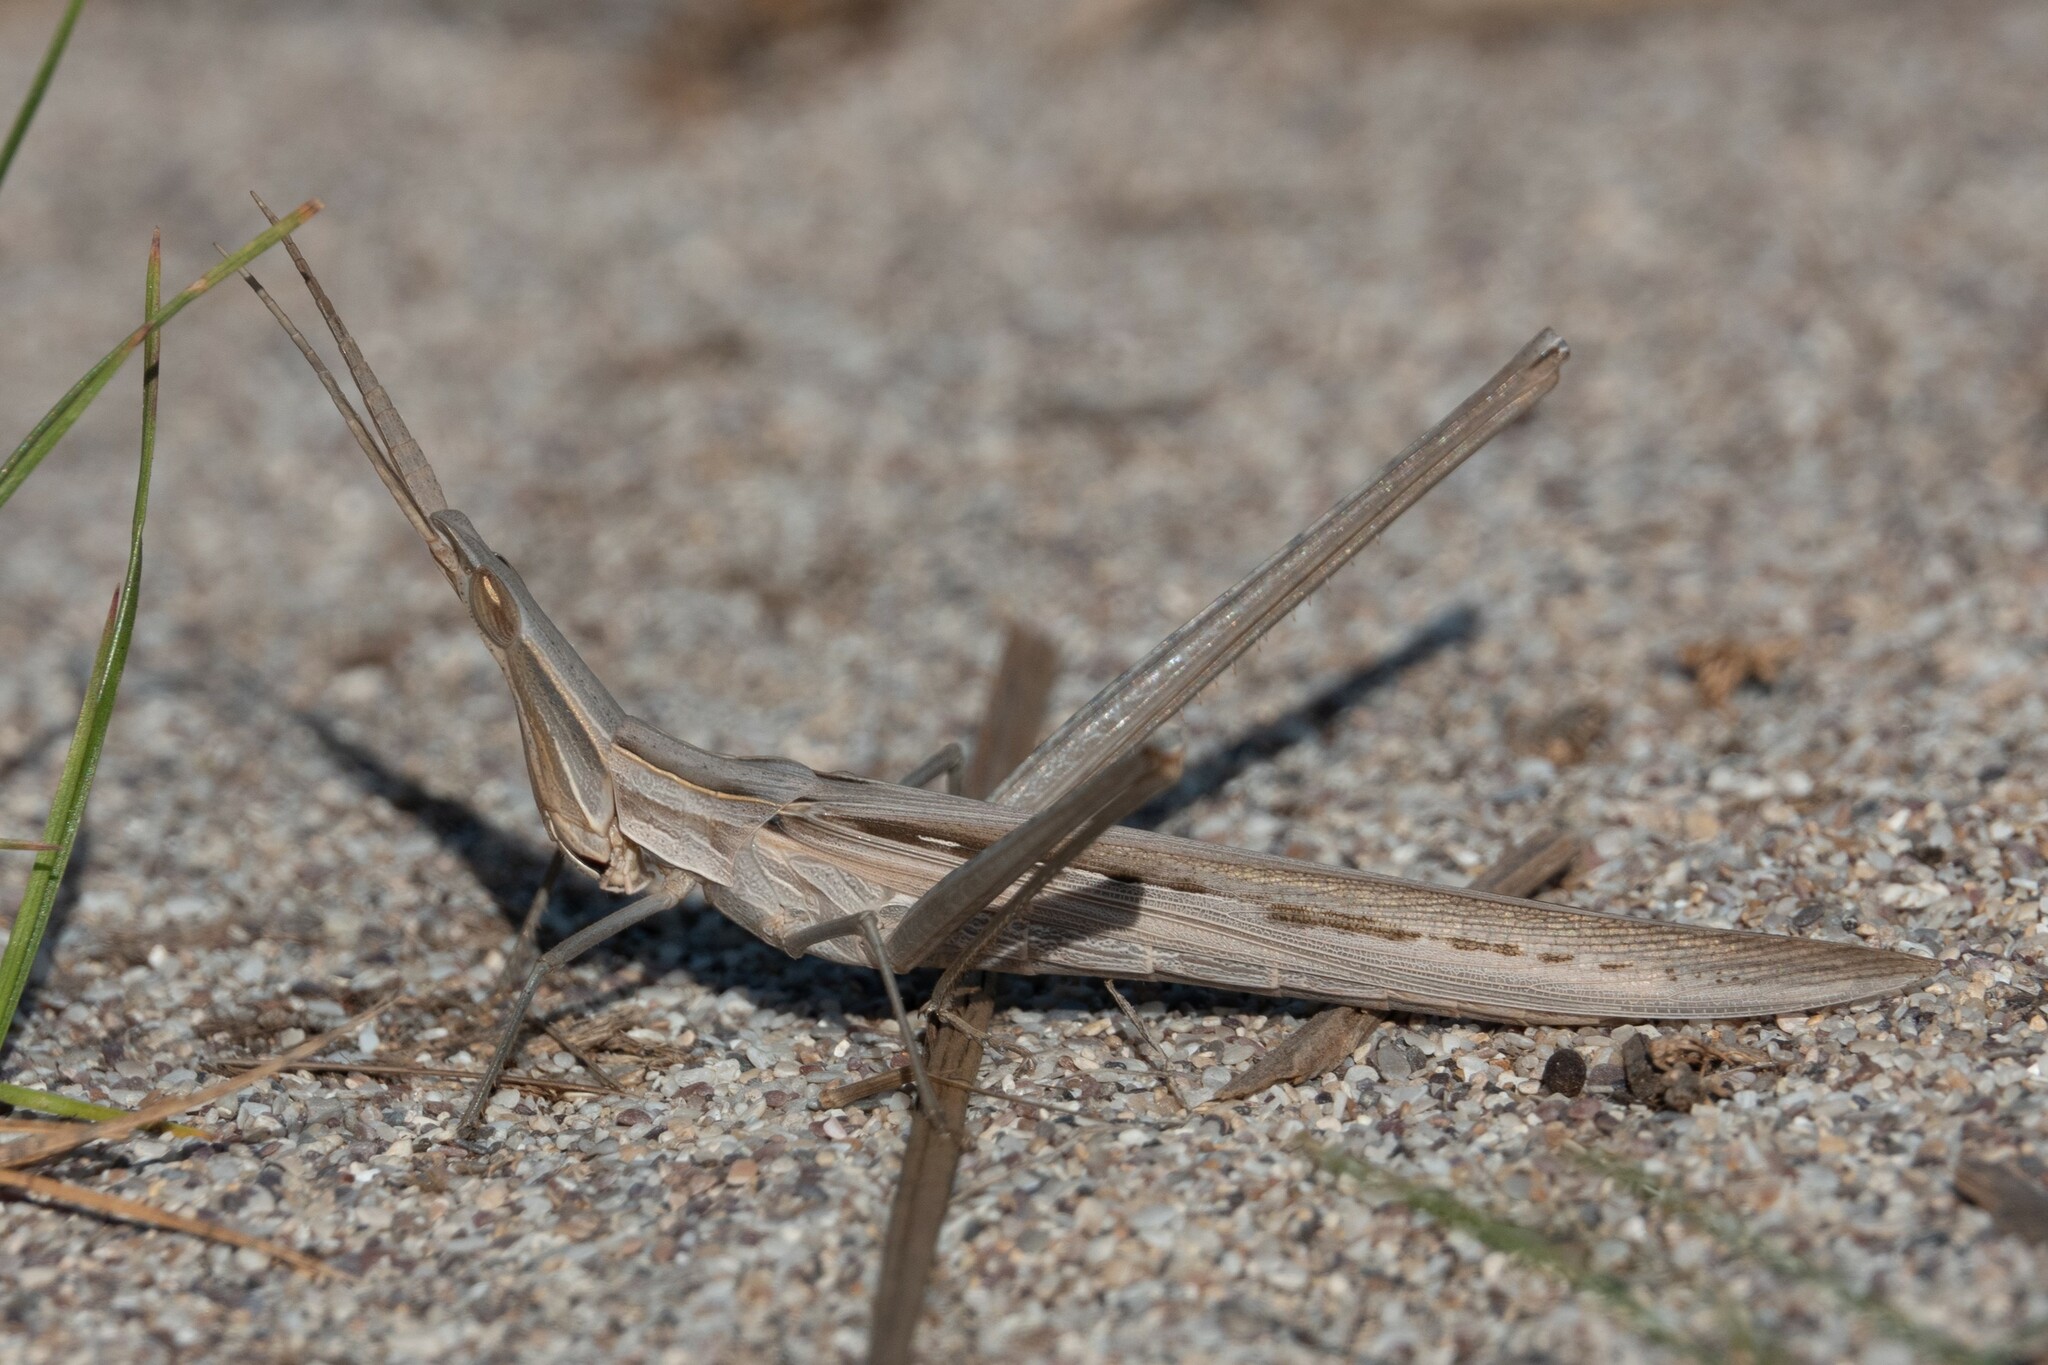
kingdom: Animalia
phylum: Arthropoda
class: Insecta
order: Orthoptera
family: Acrididae
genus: Acrida
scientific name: Acrida ungarica
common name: Common cone-headed grasshopper
